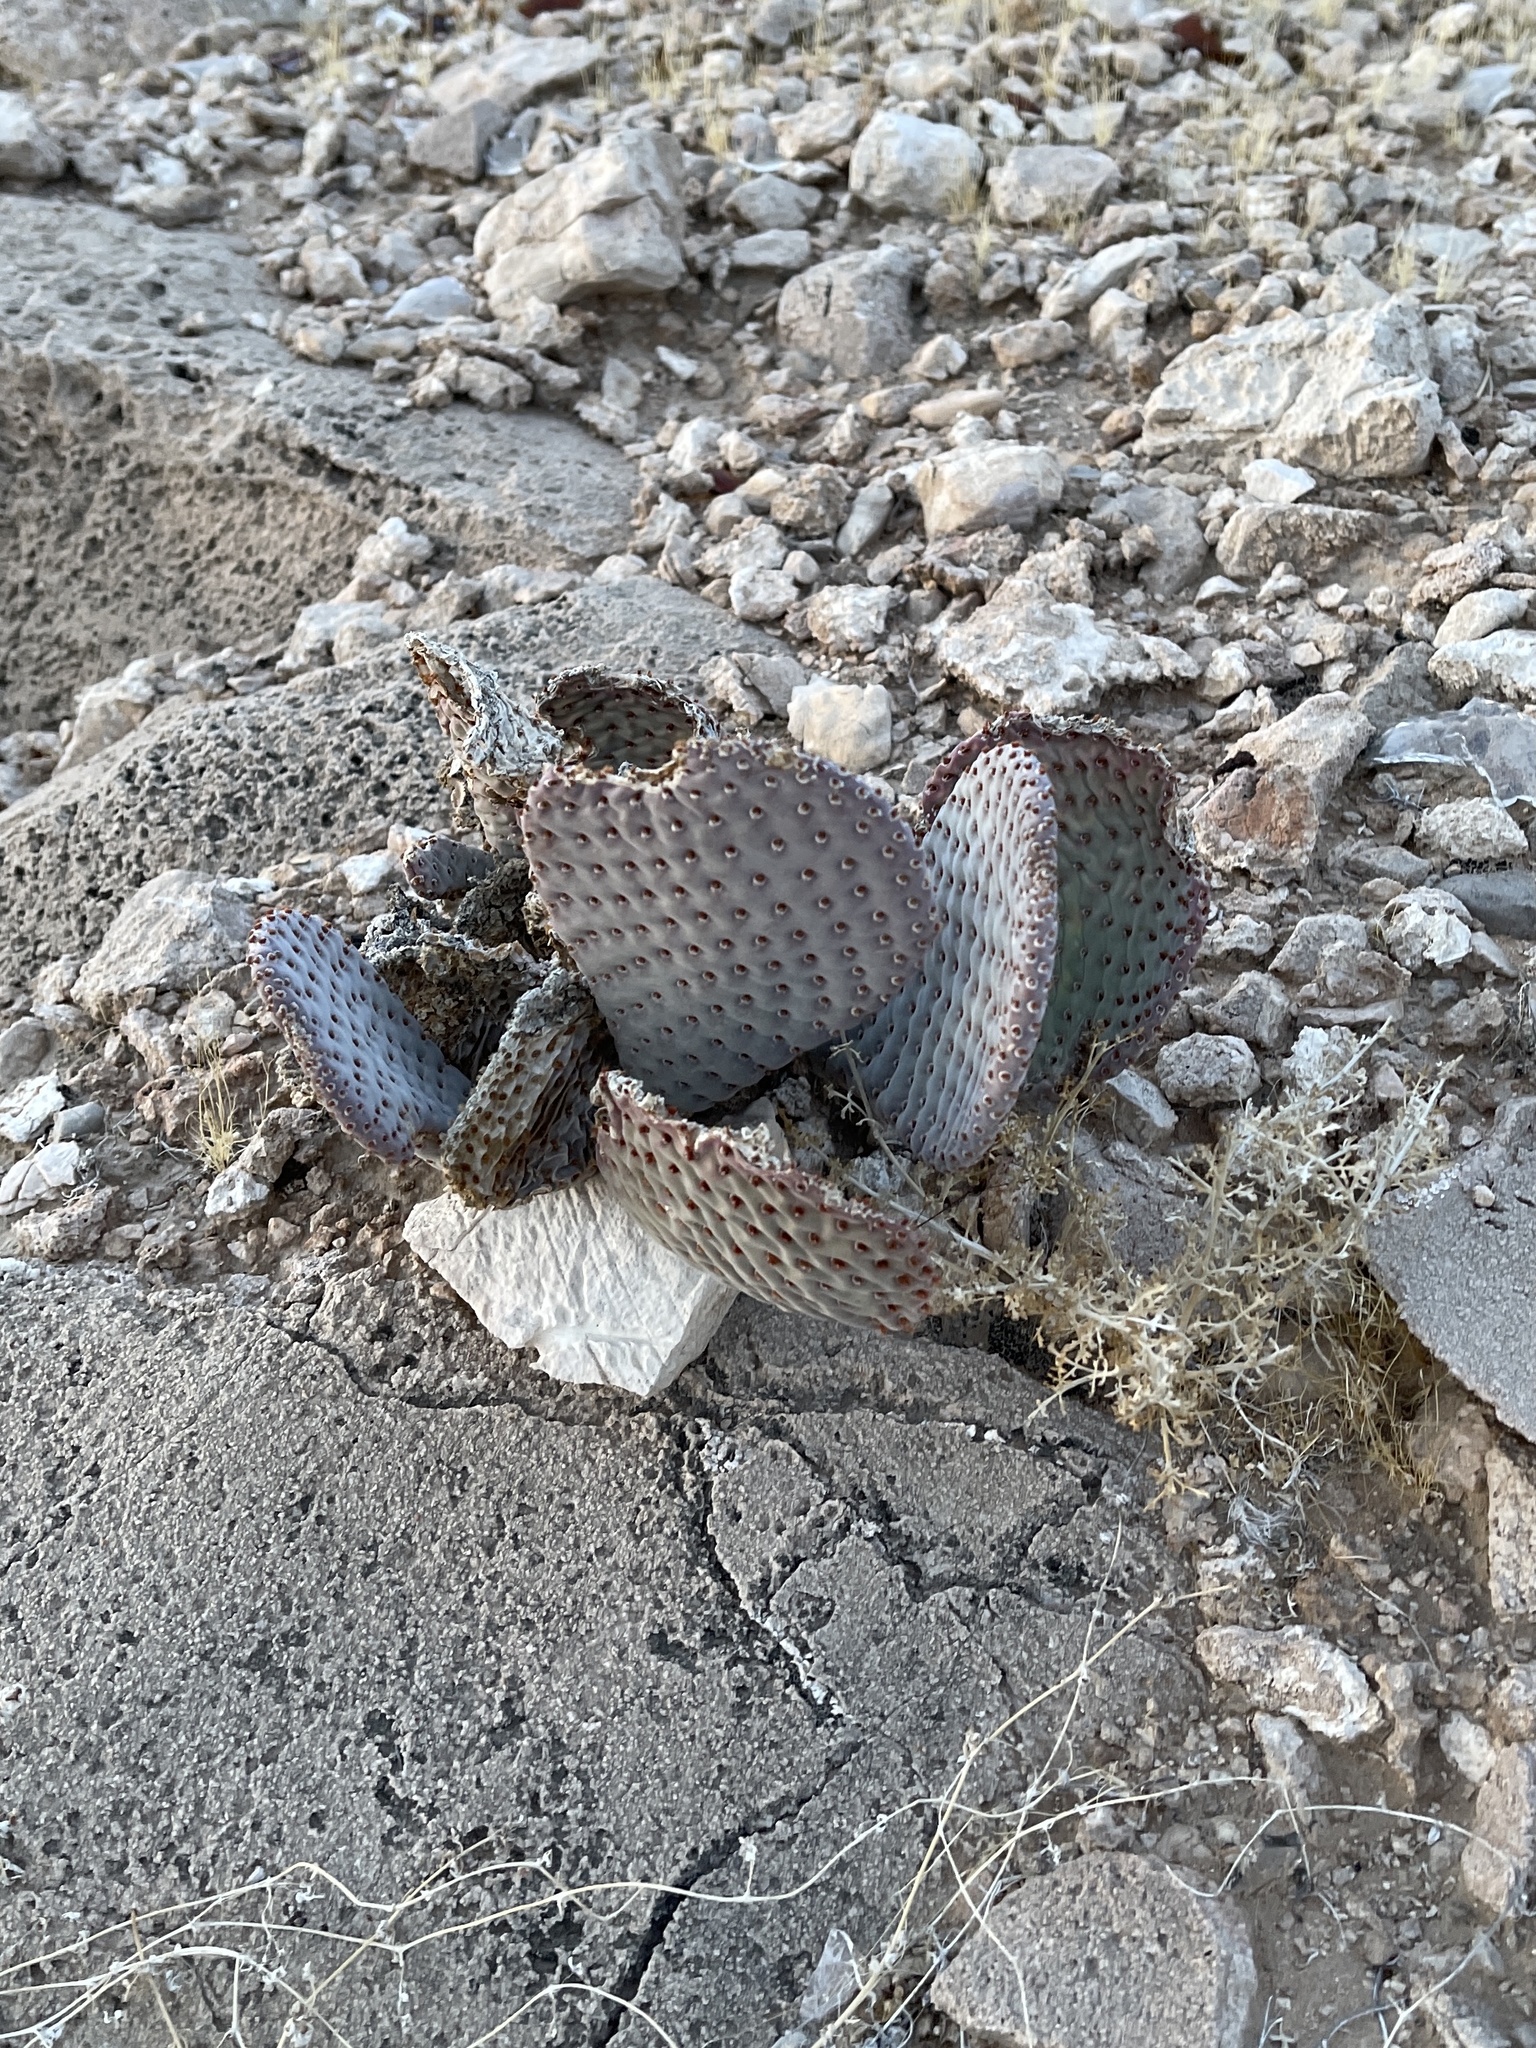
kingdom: Plantae
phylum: Tracheophyta
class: Magnoliopsida
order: Caryophyllales
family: Cactaceae
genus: Opuntia
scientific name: Opuntia basilaris
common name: Beavertail prickly-pear
